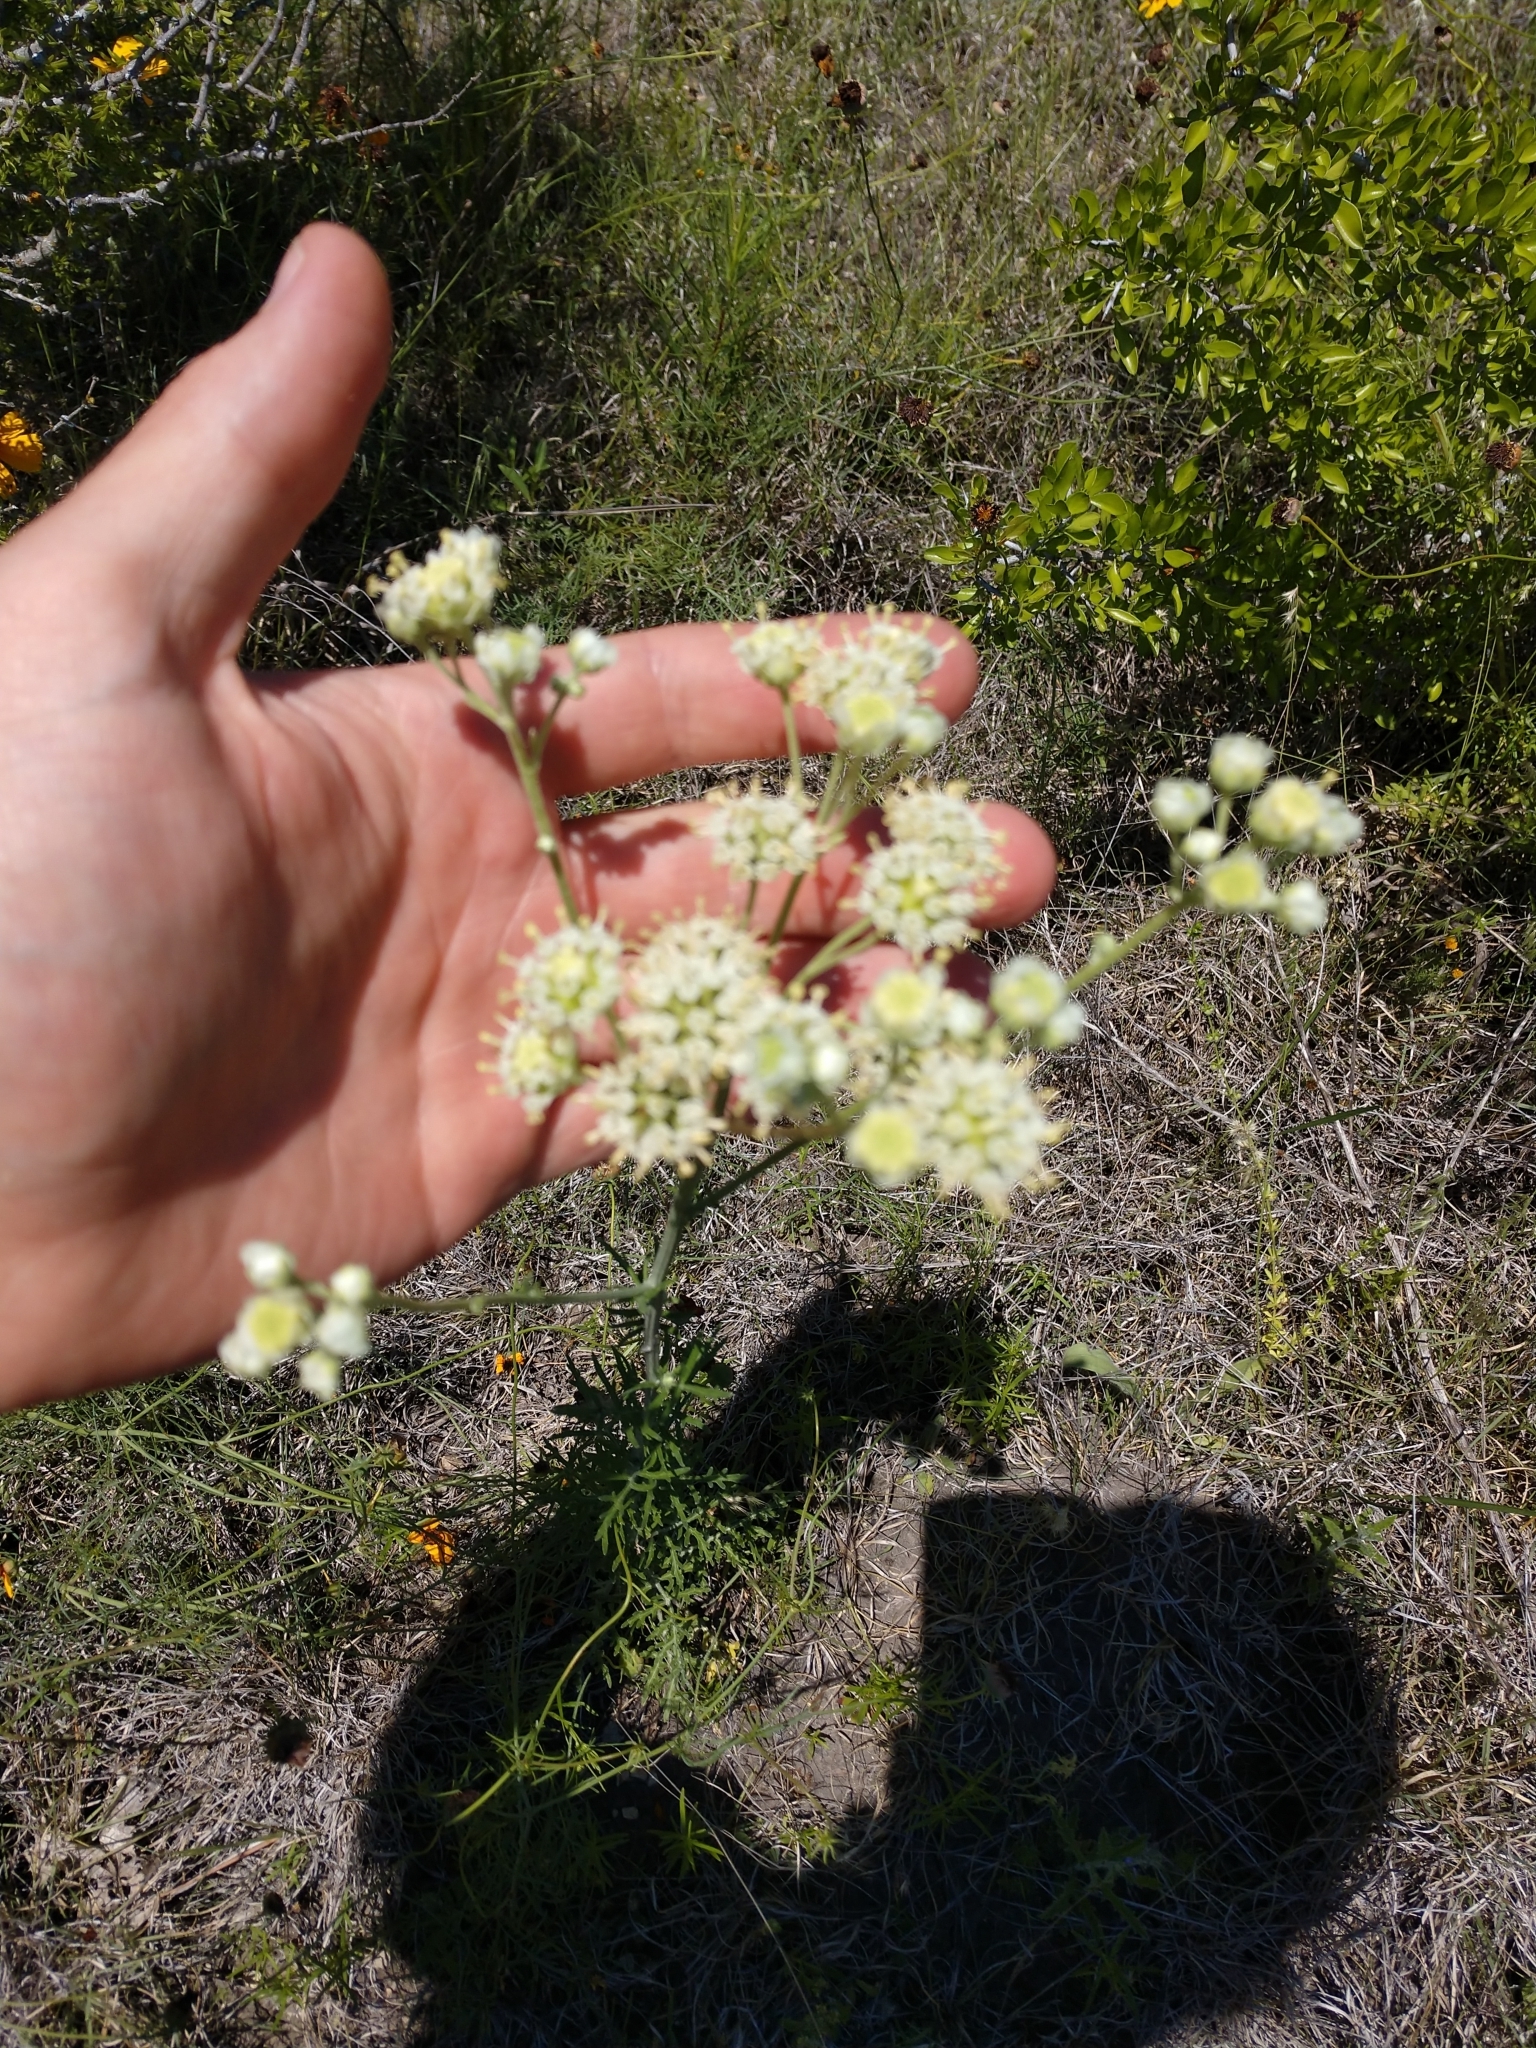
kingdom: Plantae
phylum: Tracheophyta
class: Magnoliopsida
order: Asterales
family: Asteraceae
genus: Hymenopappus
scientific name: Hymenopappus scabiosaeus
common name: Carolina woollywhite
